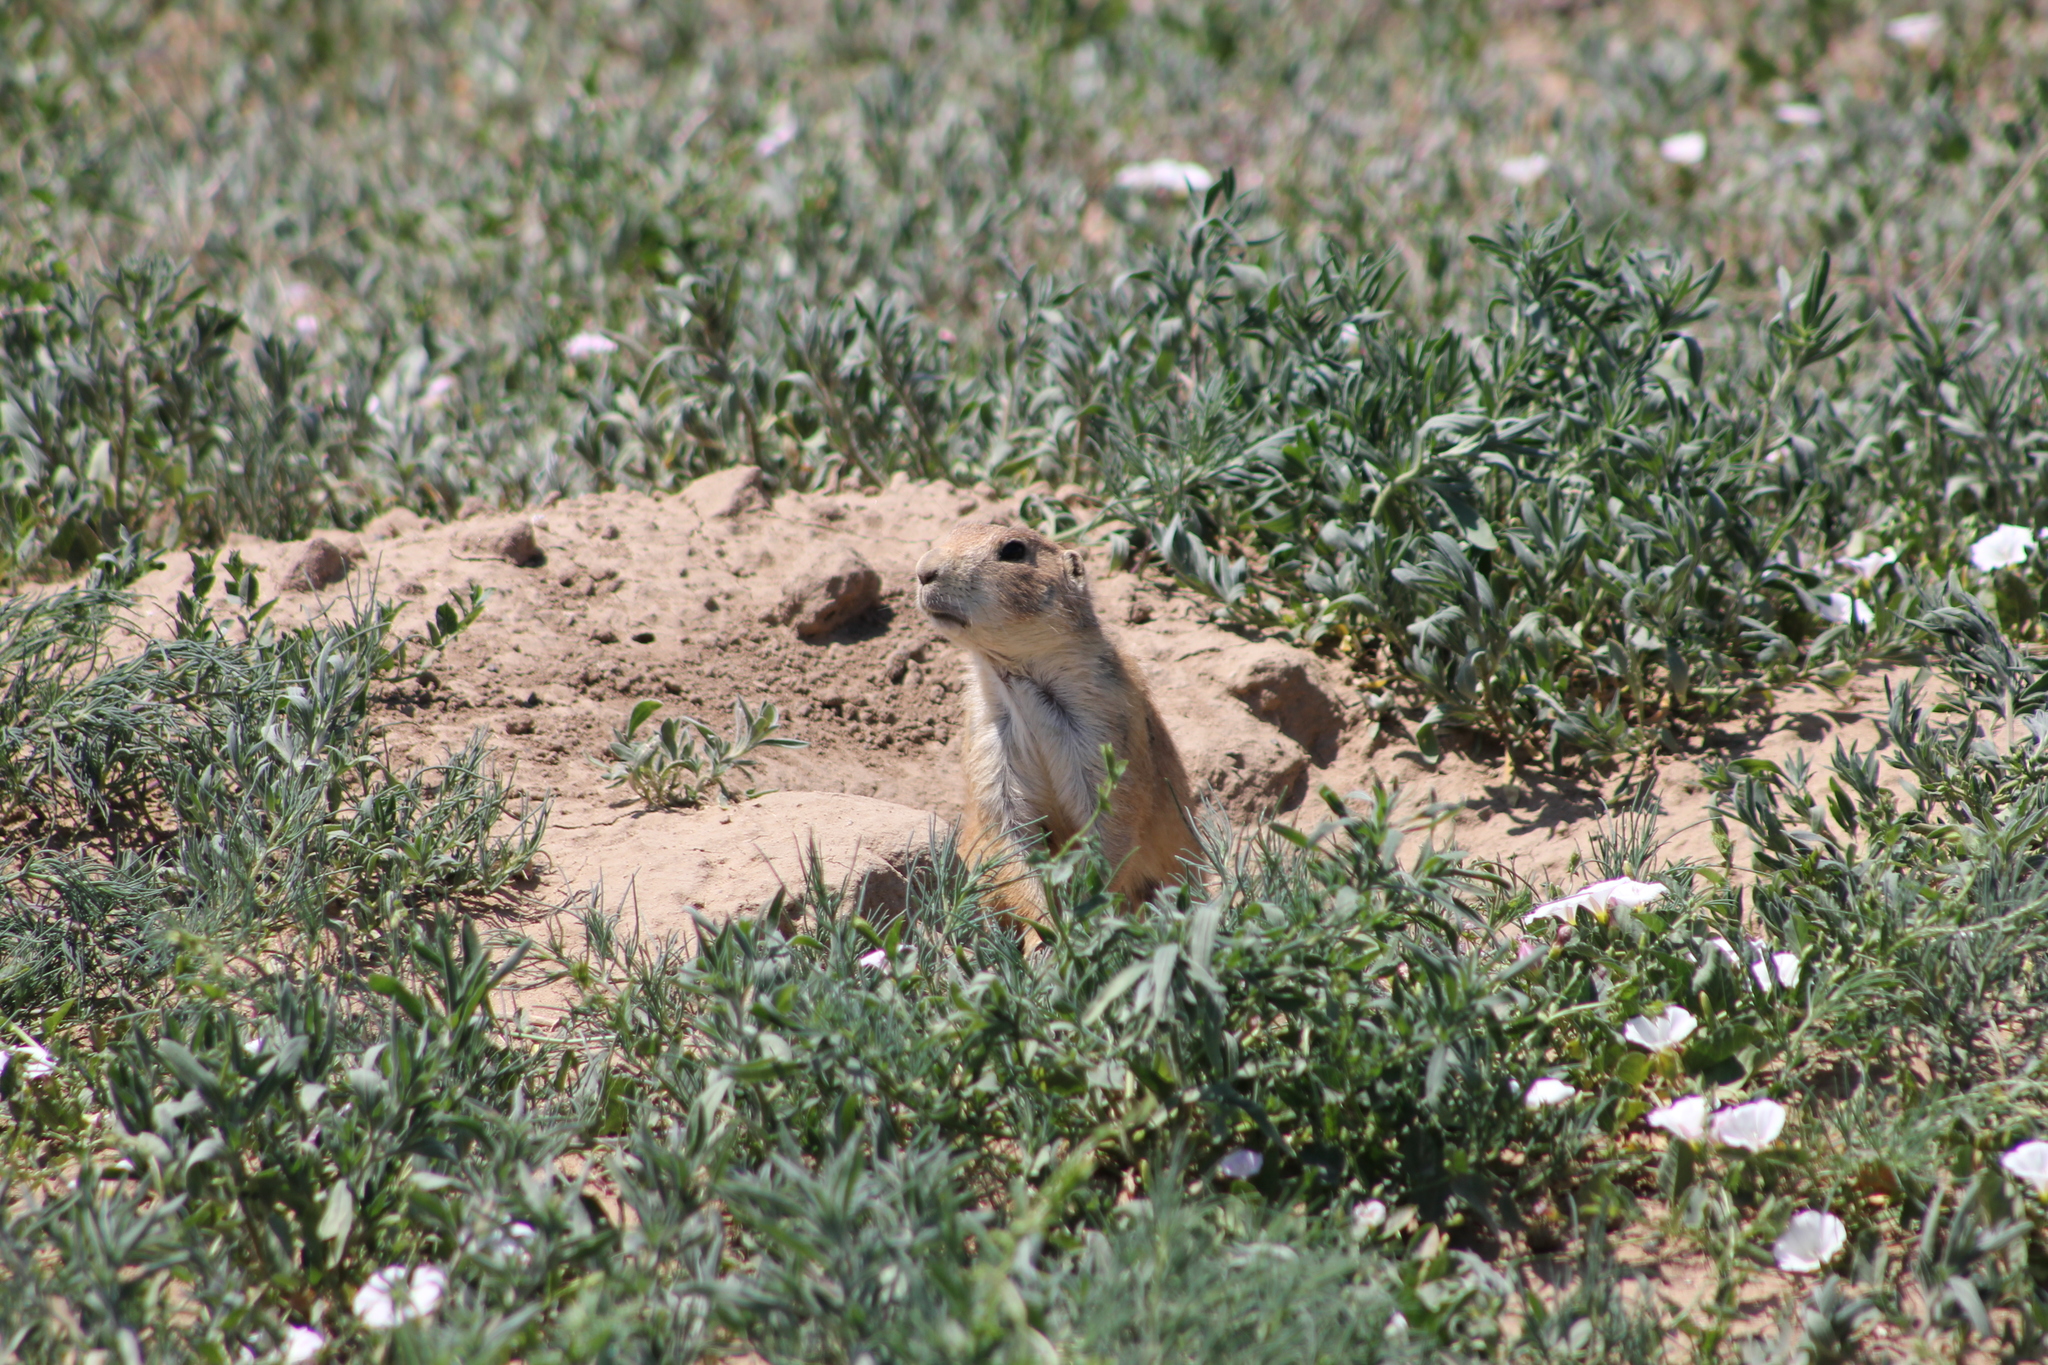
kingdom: Animalia
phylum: Chordata
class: Mammalia
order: Rodentia
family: Sciuridae
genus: Cynomys
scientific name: Cynomys ludovicianus
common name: Black-tailed prairie dog
